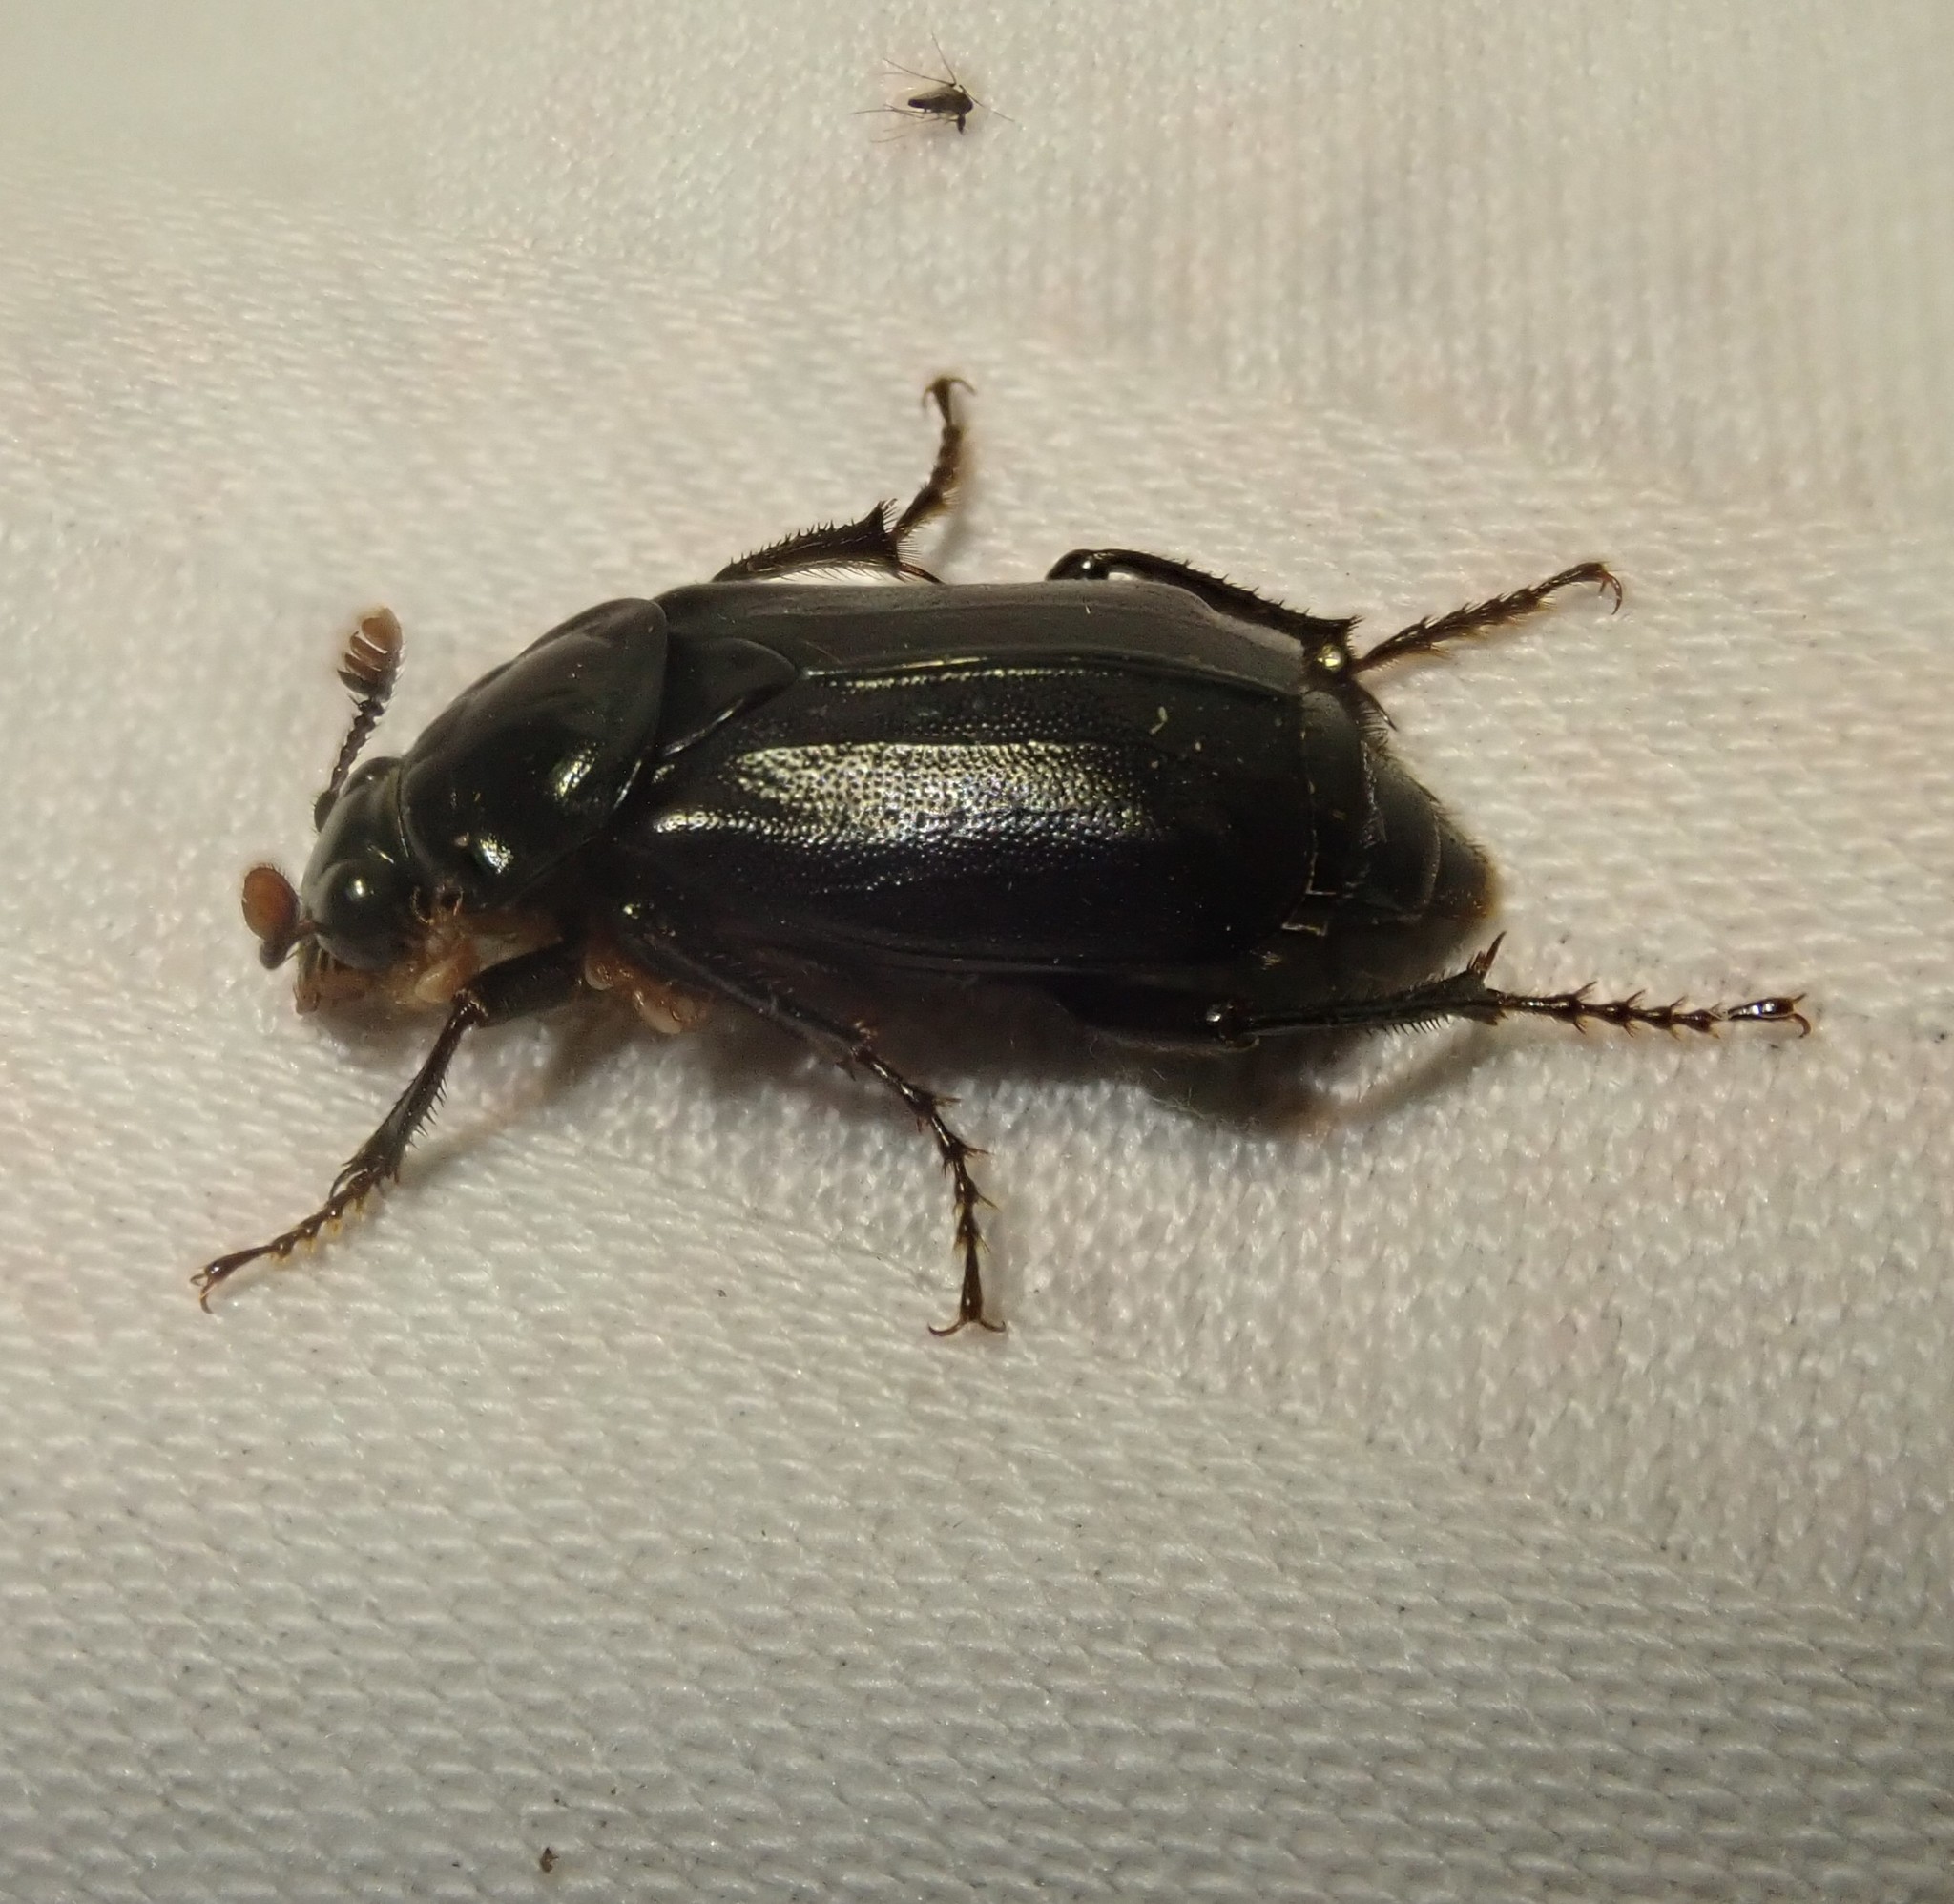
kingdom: Animalia
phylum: Arthropoda
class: Insecta
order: Coleoptera
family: Staphylinidae
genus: Nicrophorus
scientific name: Nicrophorus humator
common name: Black sexton beetle
